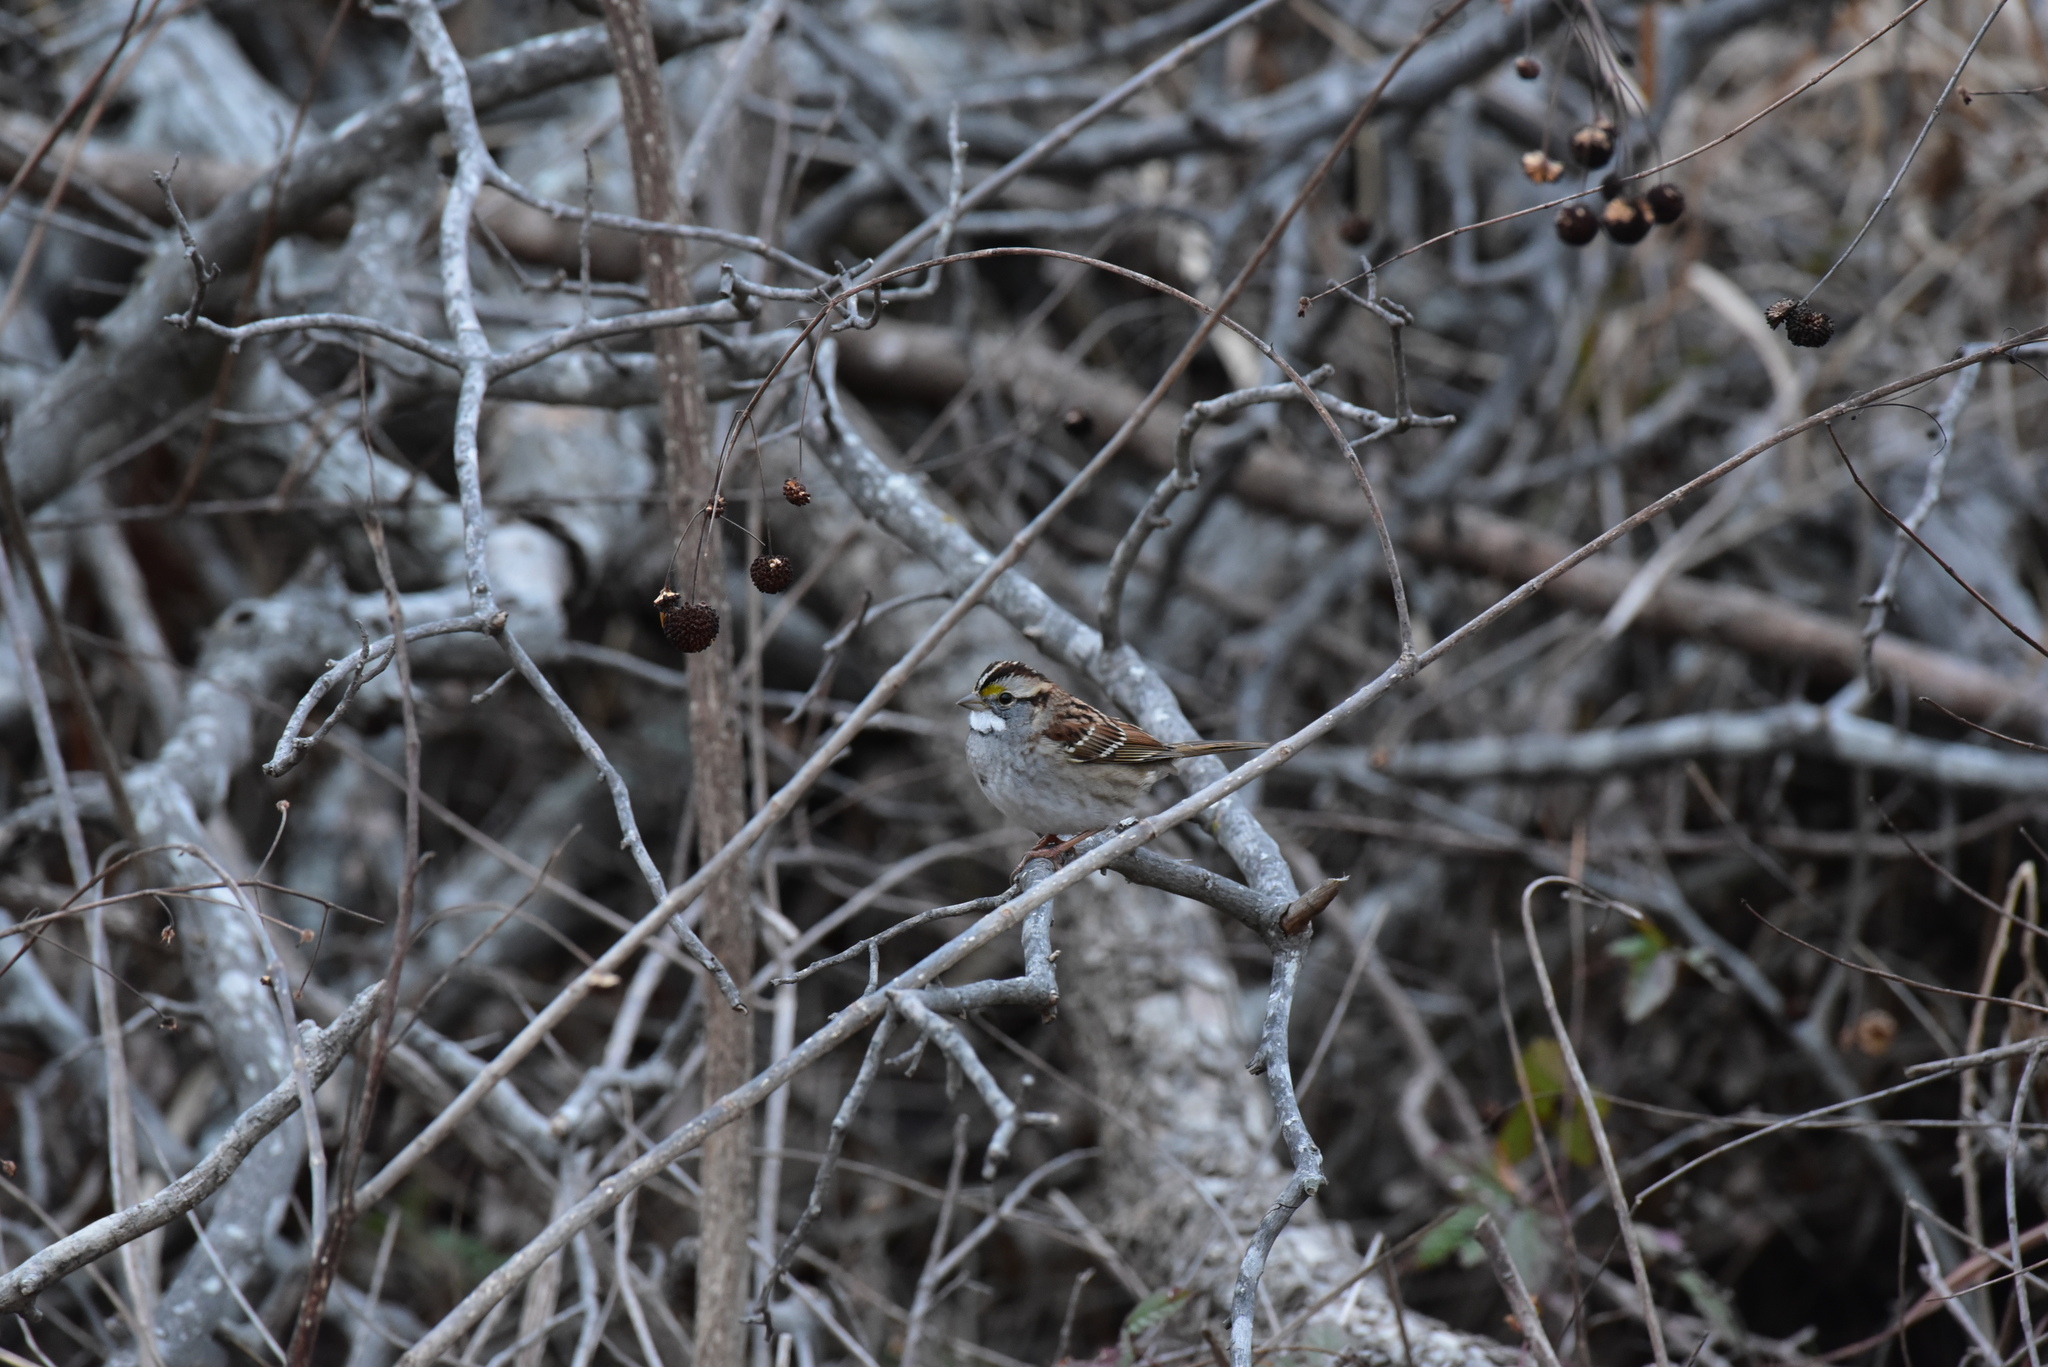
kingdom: Animalia
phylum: Chordata
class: Aves
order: Passeriformes
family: Passerellidae
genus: Zonotrichia
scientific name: Zonotrichia albicollis
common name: White-throated sparrow
